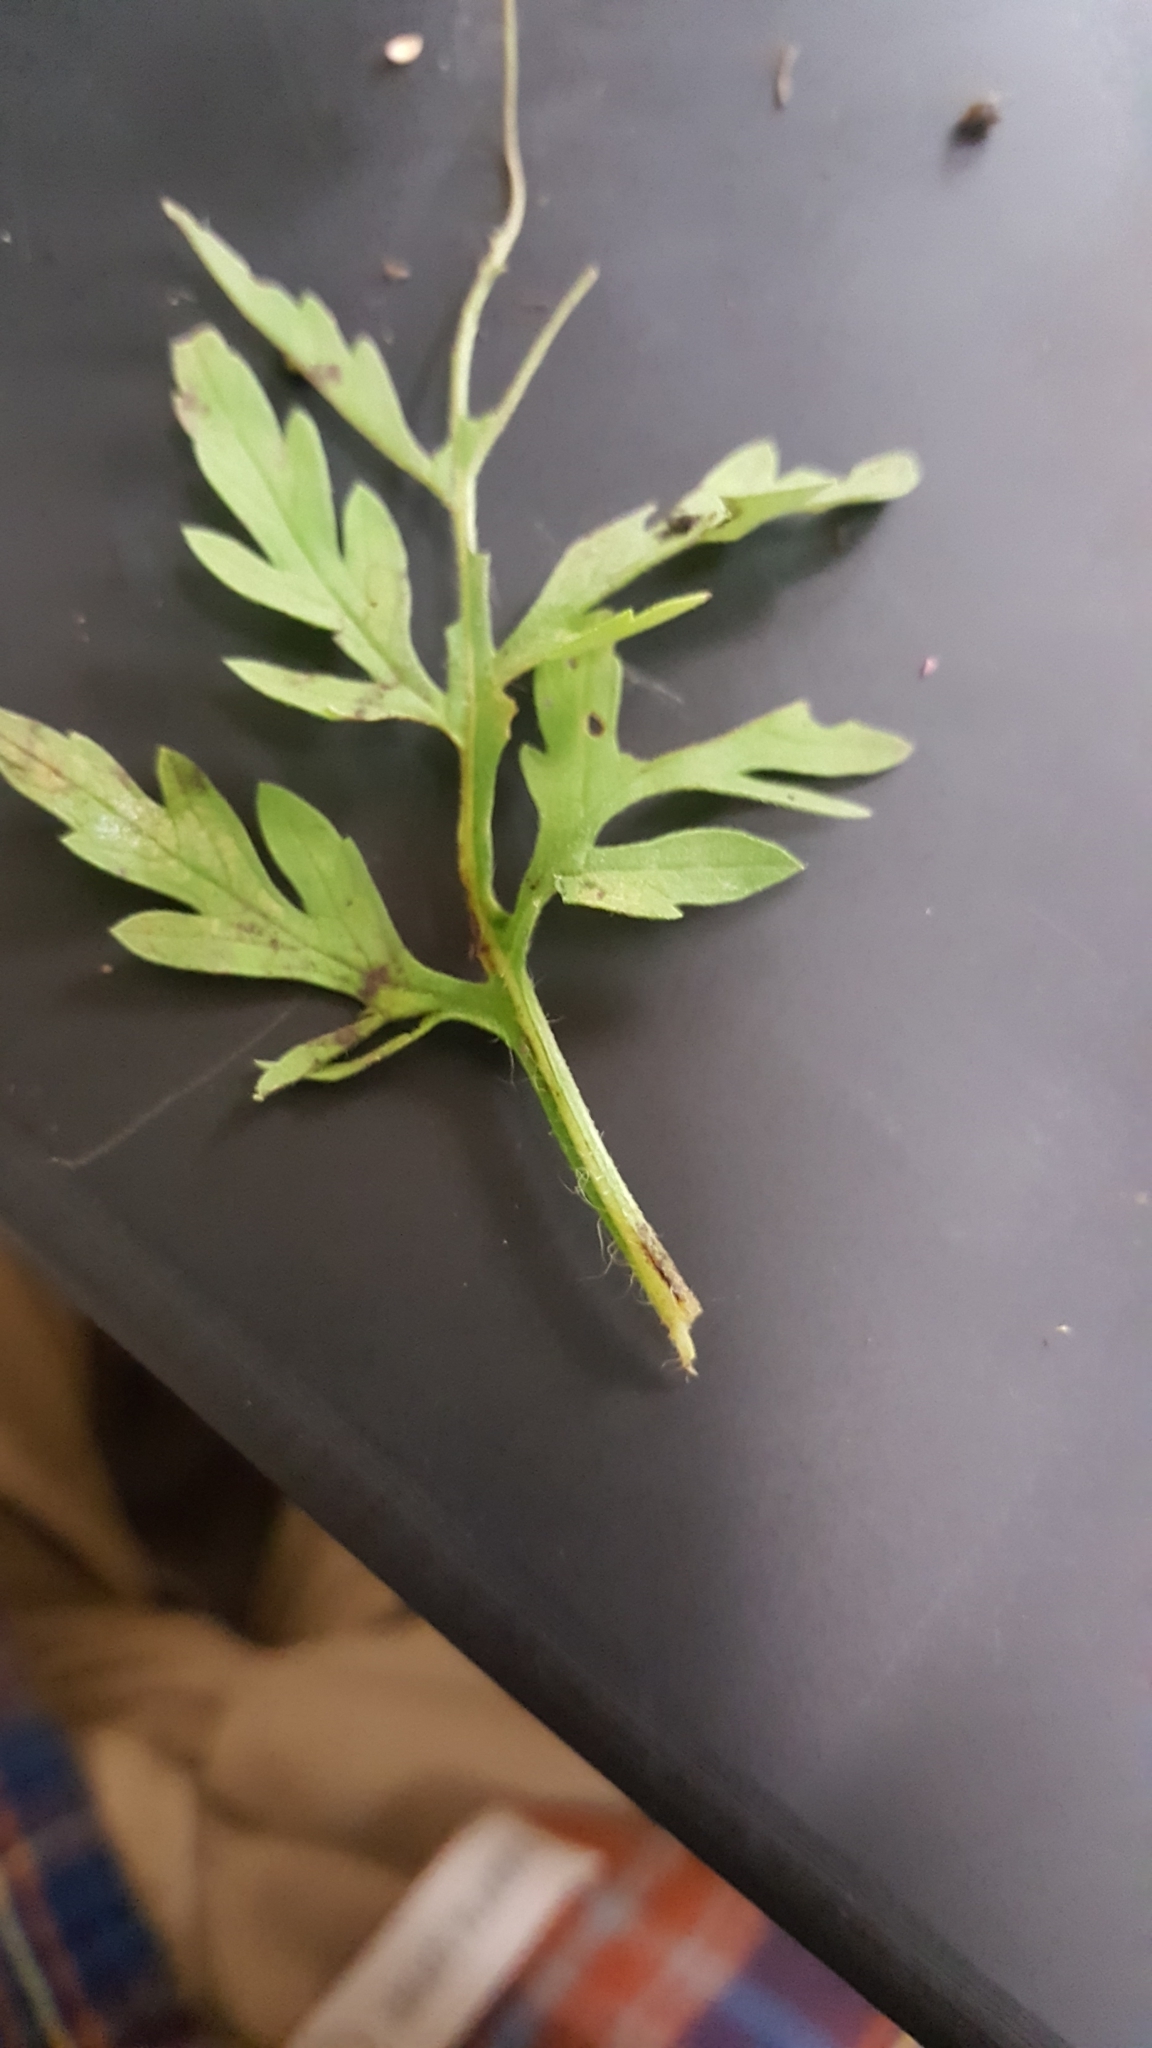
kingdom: Plantae
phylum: Tracheophyta
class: Magnoliopsida
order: Asterales
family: Asteraceae
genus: Ambrosia
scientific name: Ambrosia artemisiifolia
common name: Annual ragweed
